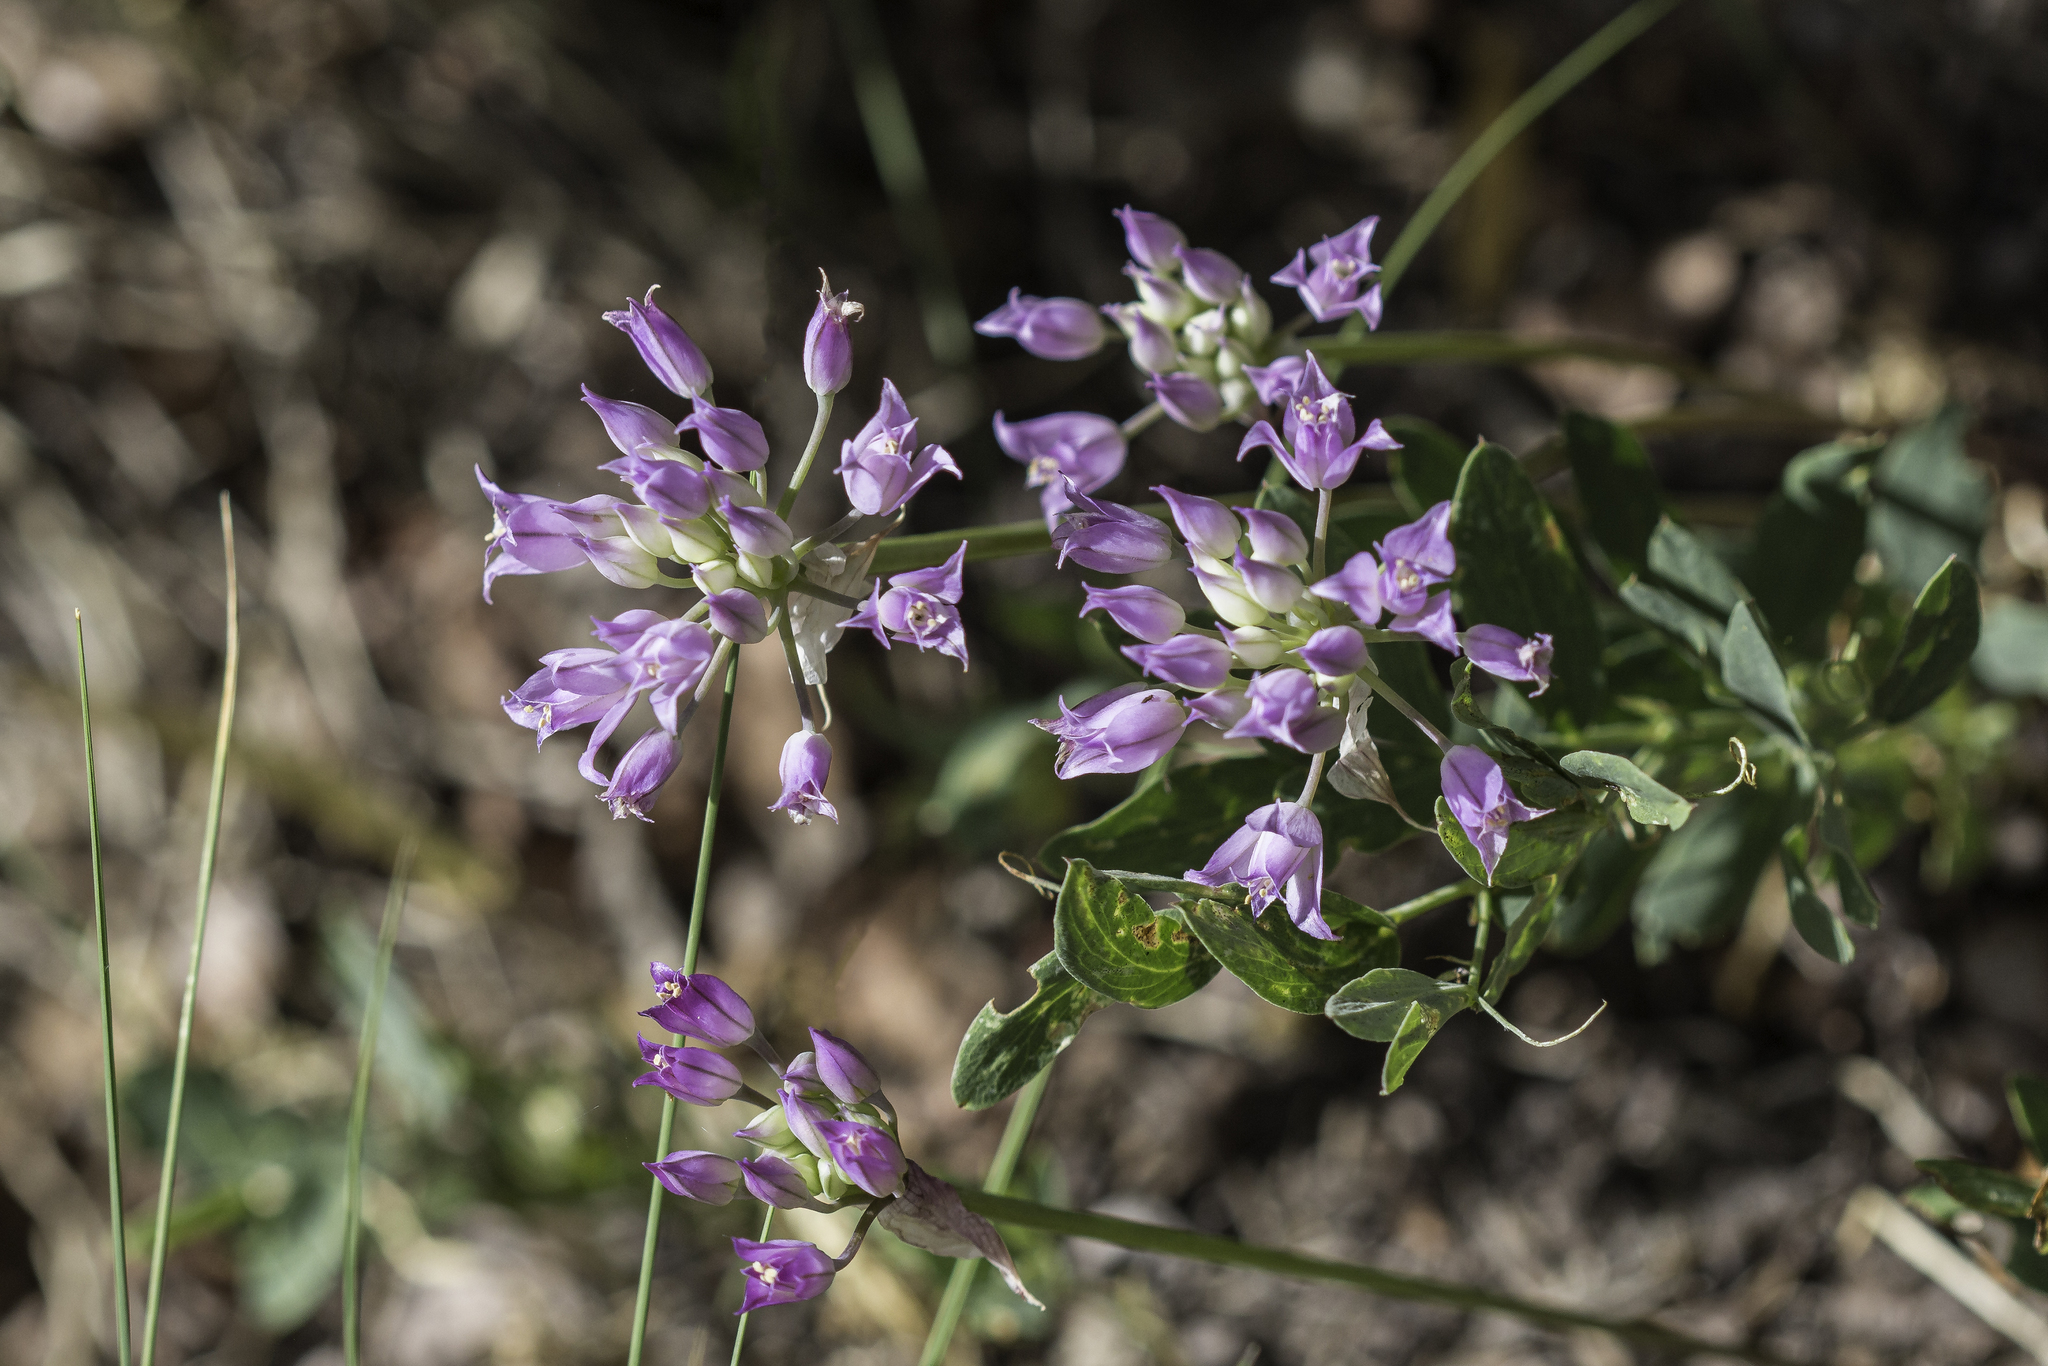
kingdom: Plantae
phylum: Tracheophyta
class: Liliopsida
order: Asparagales
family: Amaryllidaceae
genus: Allium
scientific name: Allium acuminatum
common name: Hooker's onion
